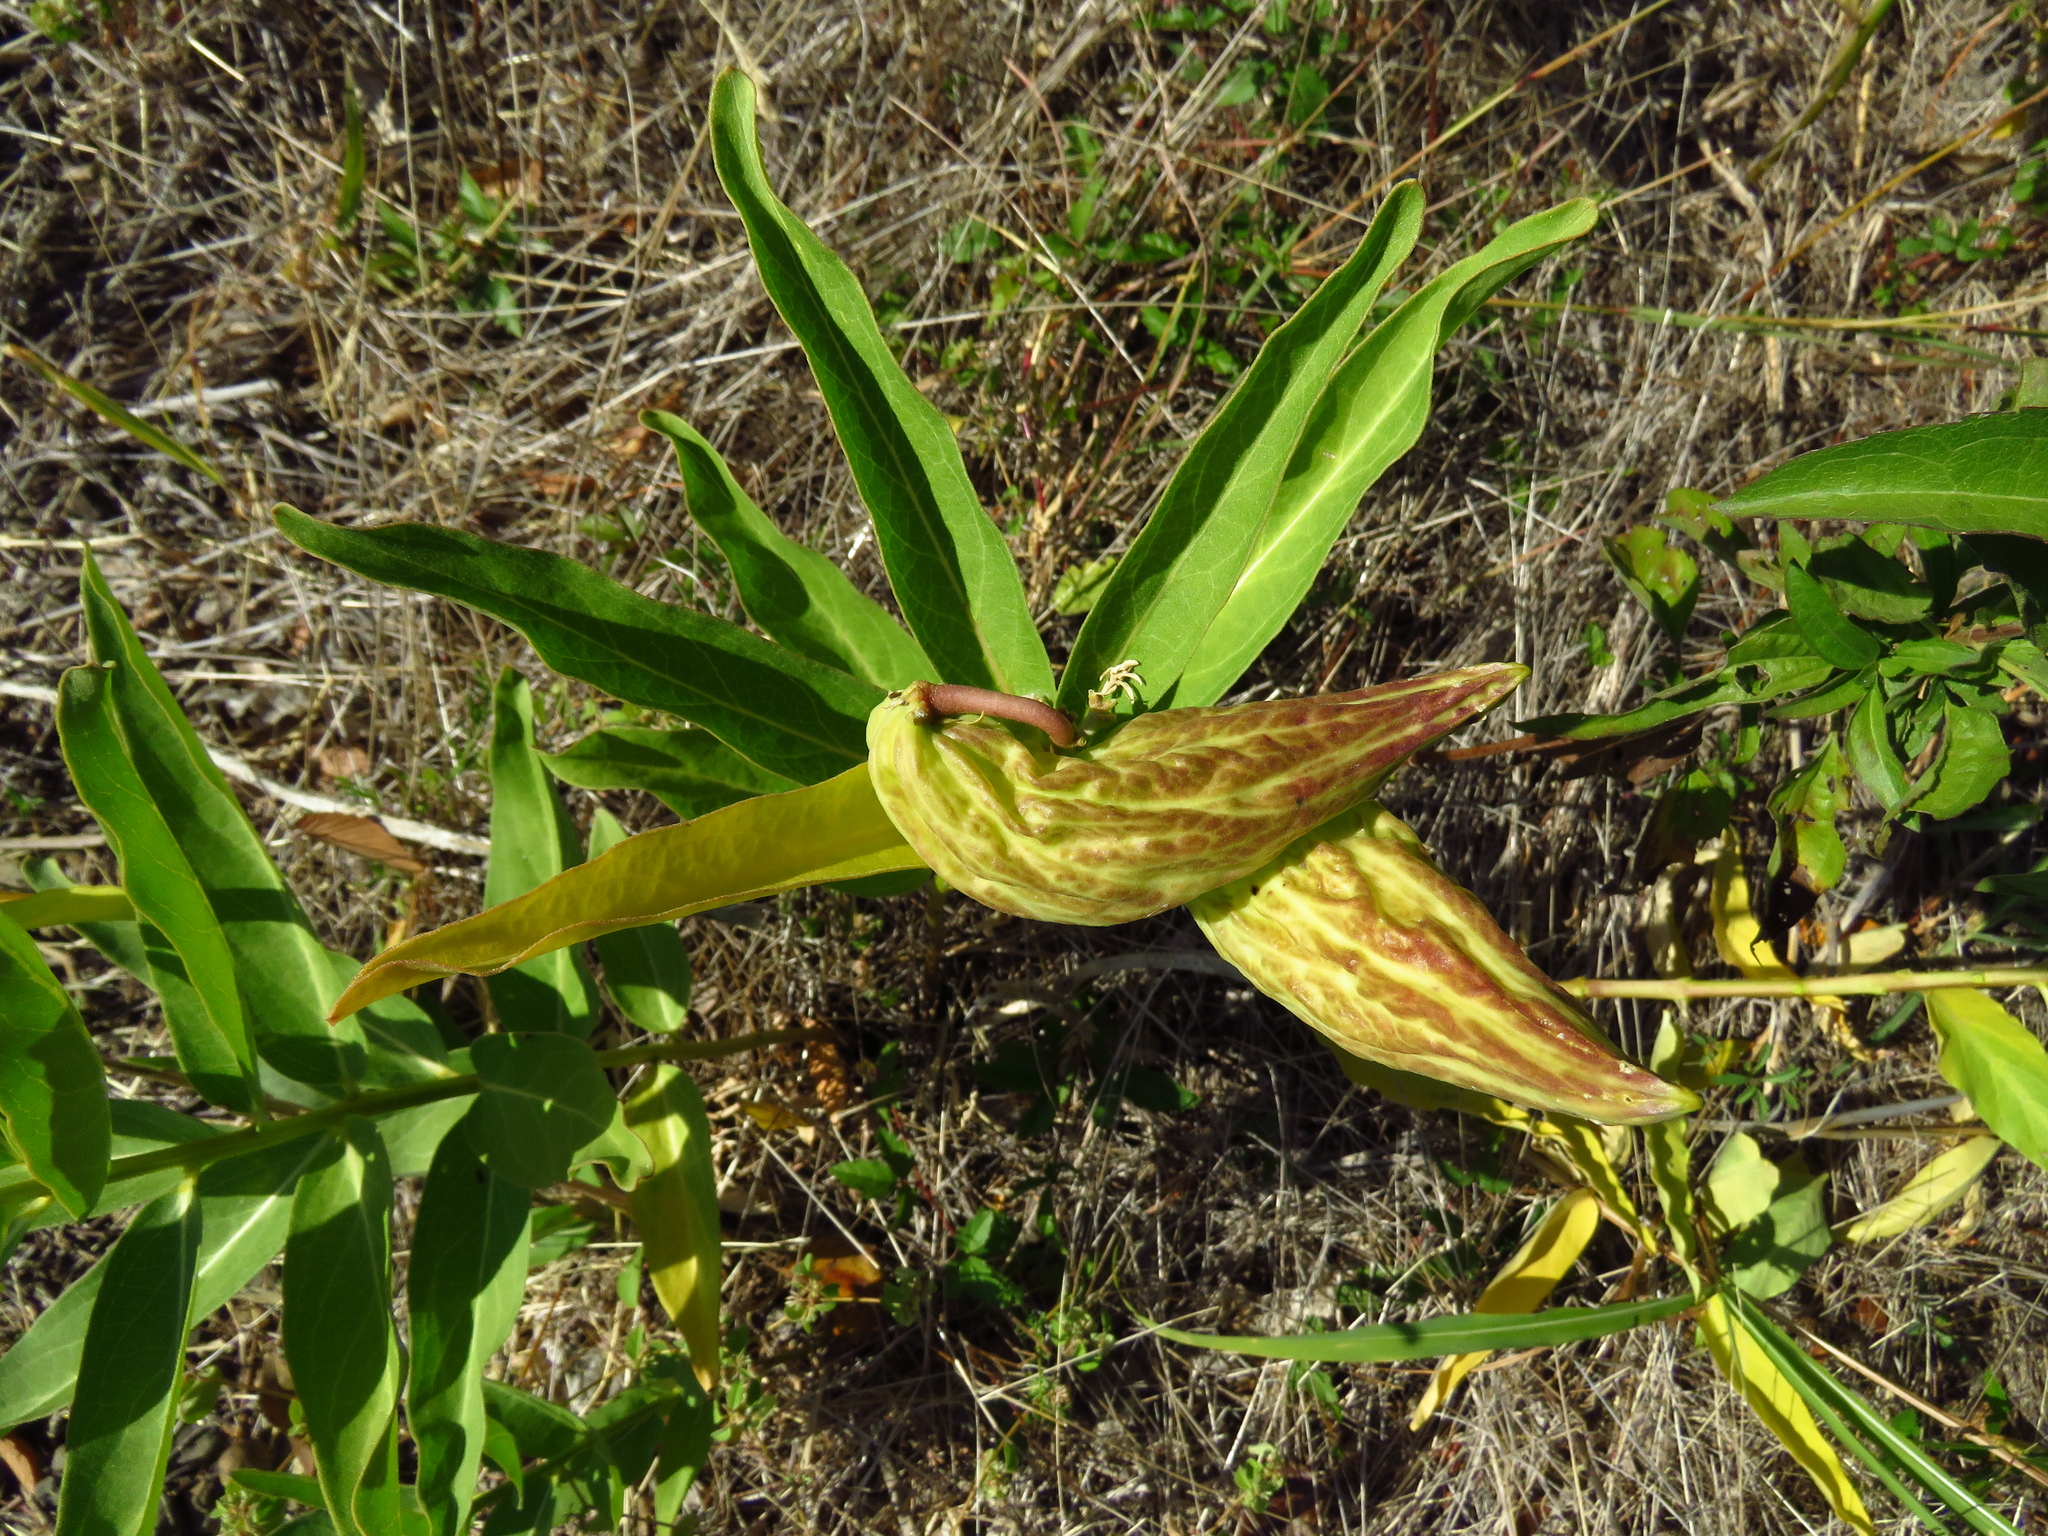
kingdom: Plantae
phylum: Tracheophyta
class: Magnoliopsida
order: Gentianales
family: Apocynaceae
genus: Asclepias
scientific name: Asclepias viridis
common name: Antelope-horns
